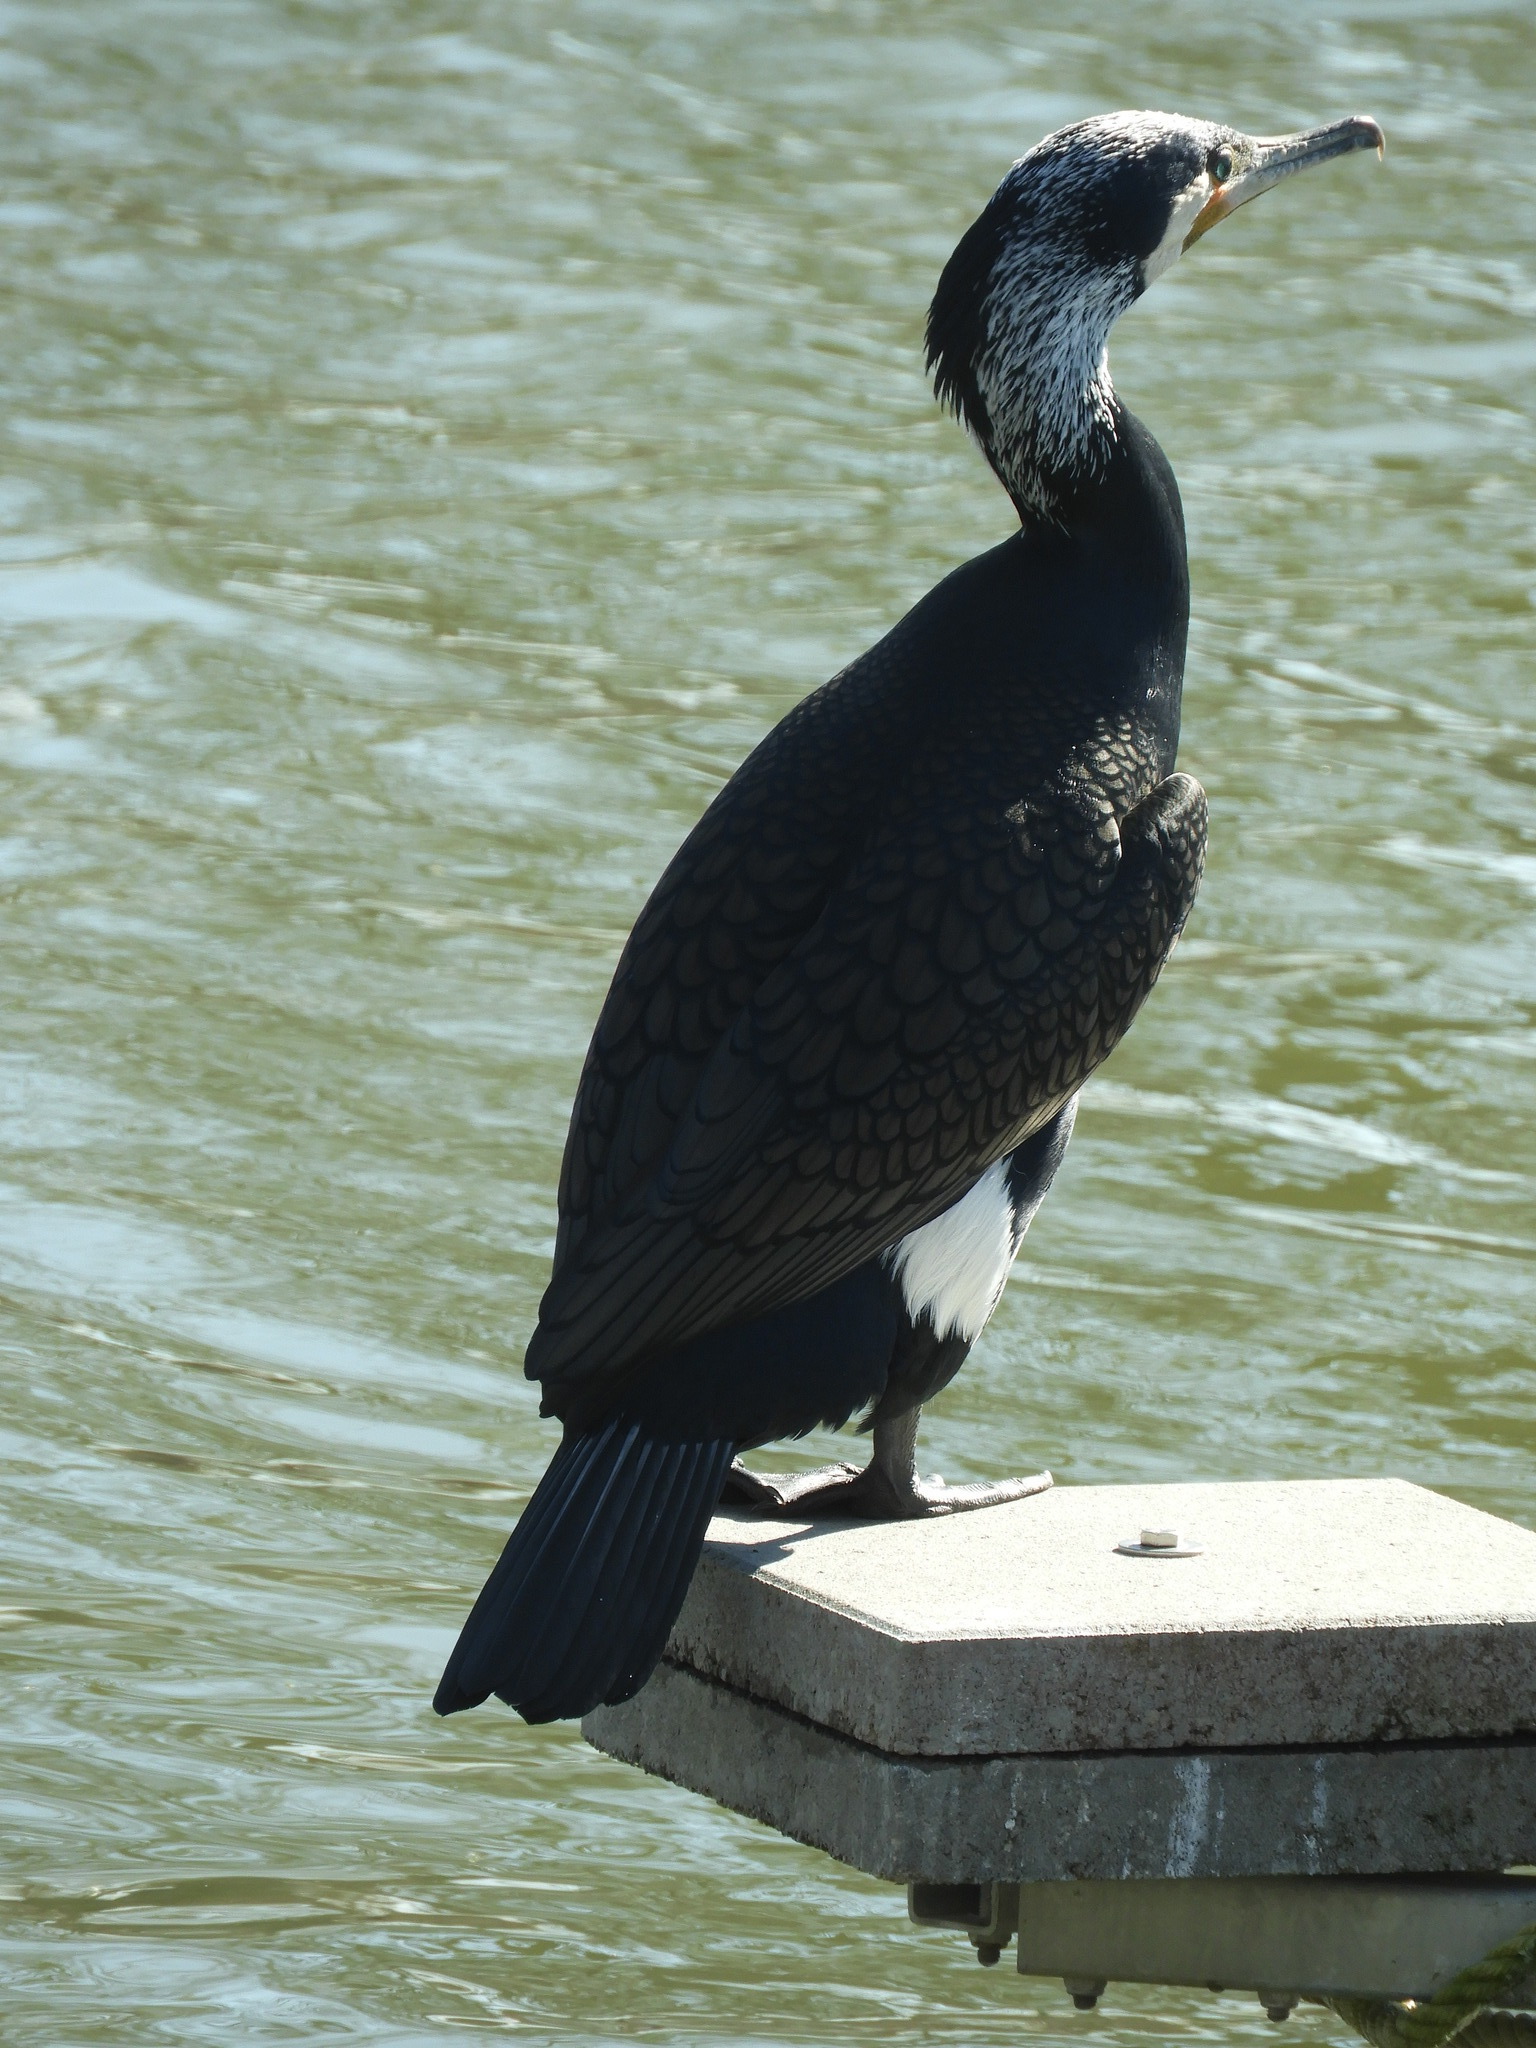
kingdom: Animalia
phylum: Chordata
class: Aves
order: Suliformes
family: Phalacrocoracidae
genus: Phalacrocorax
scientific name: Phalacrocorax carbo
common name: Great cormorant
